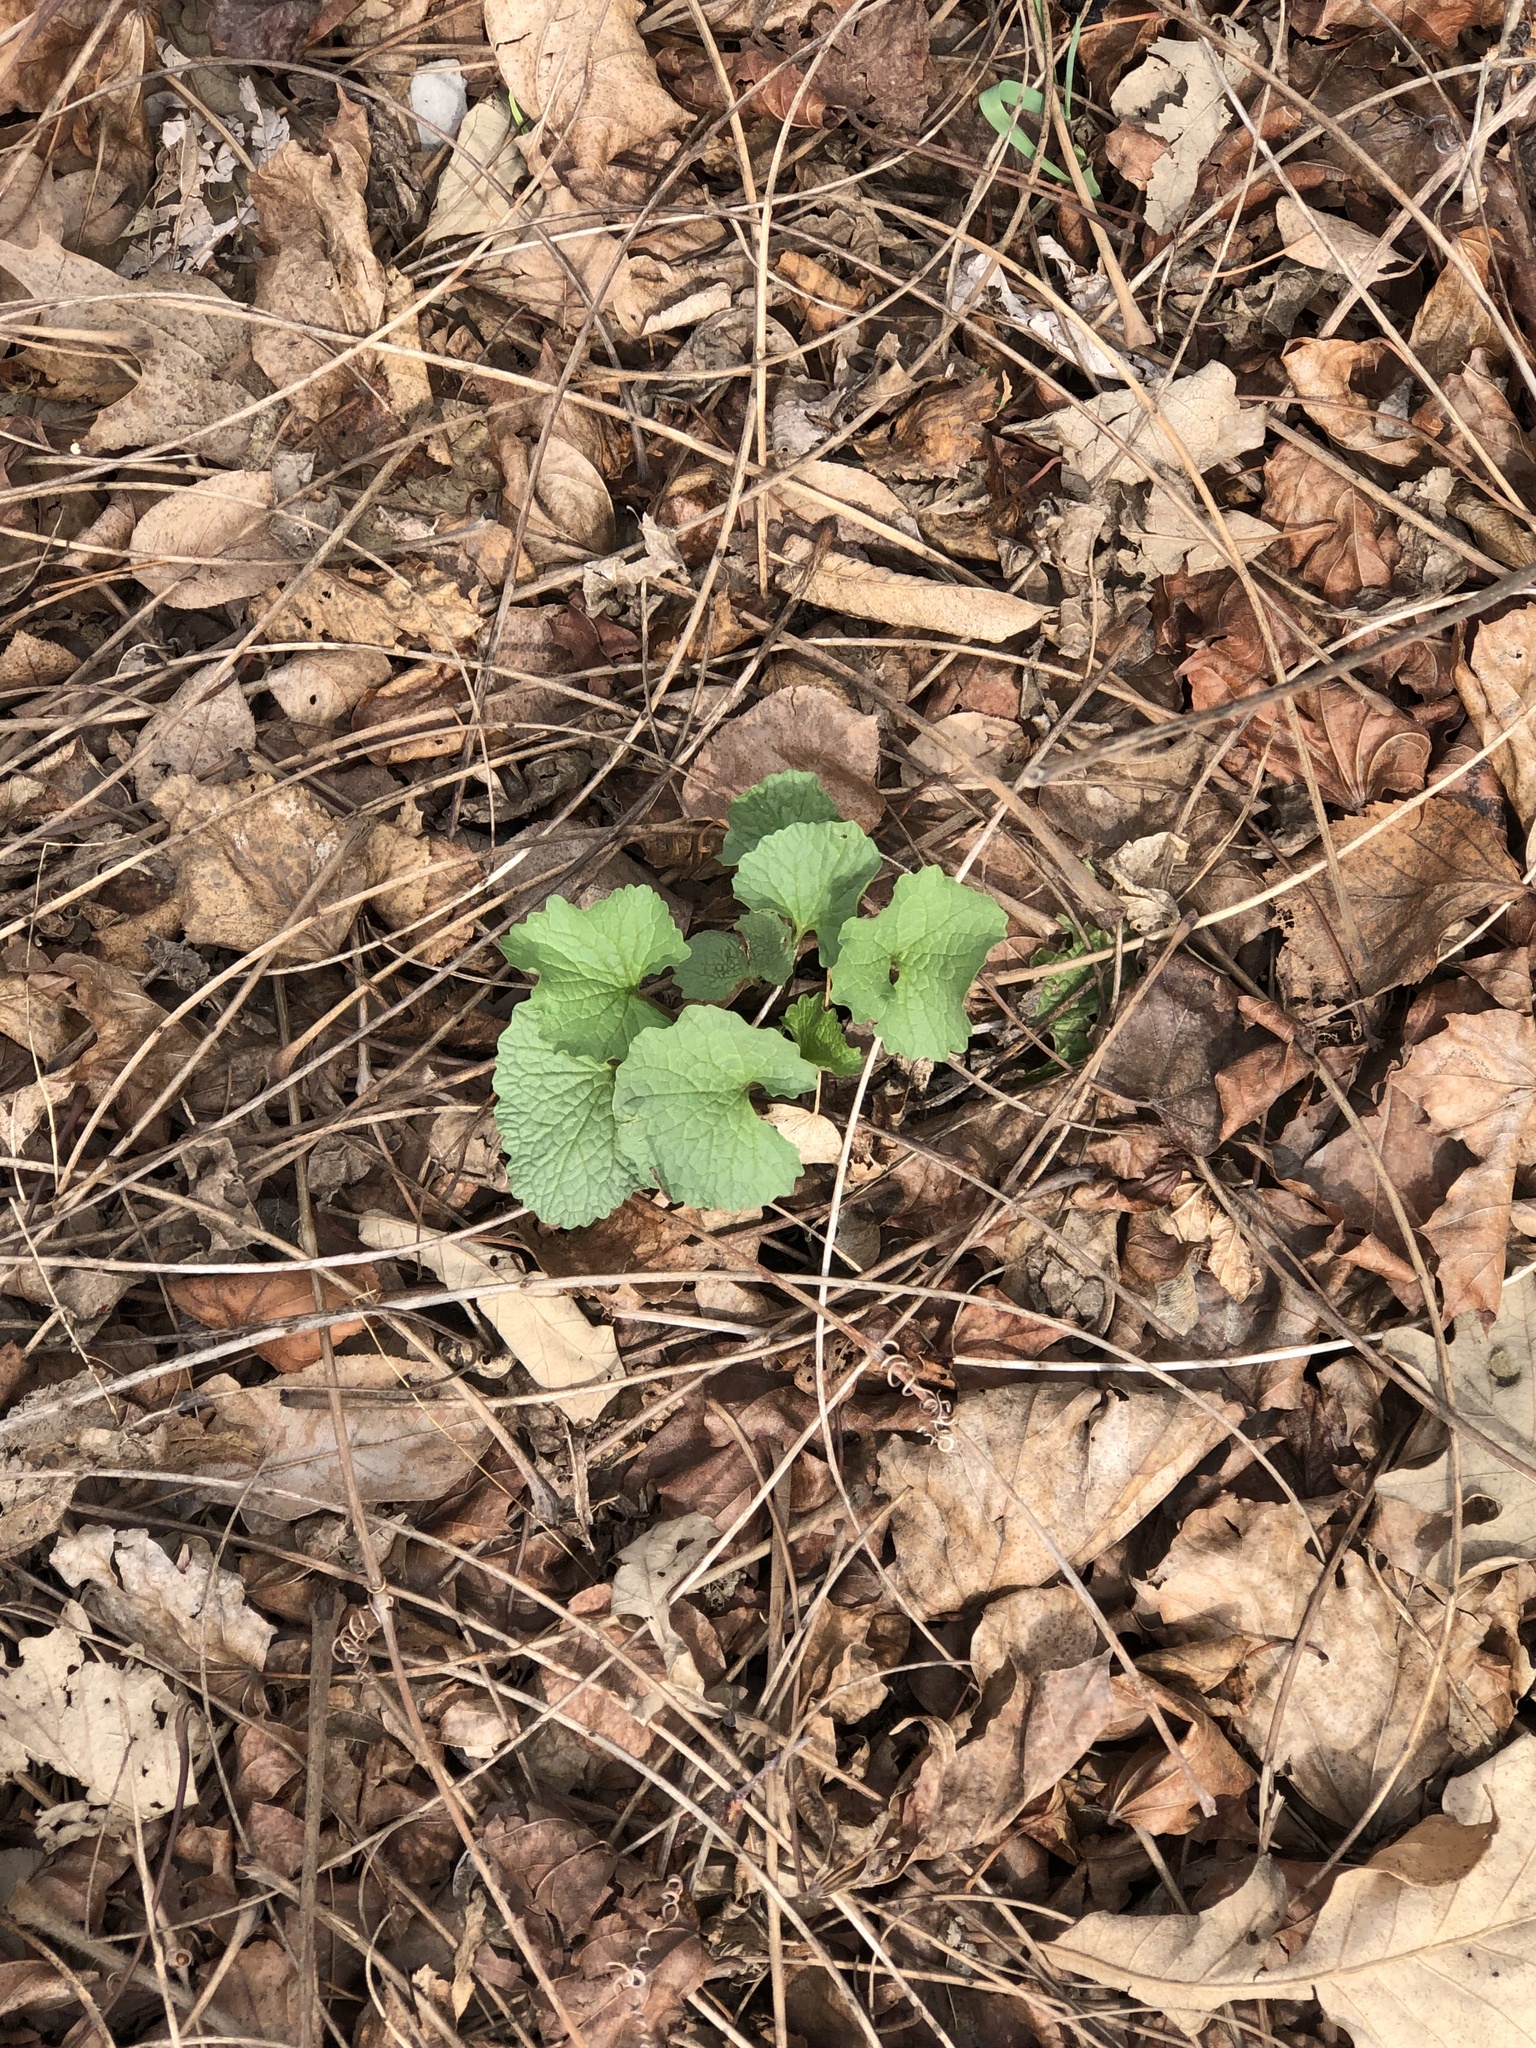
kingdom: Plantae
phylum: Tracheophyta
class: Magnoliopsida
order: Brassicales
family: Brassicaceae
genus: Alliaria
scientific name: Alliaria petiolata
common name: Garlic mustard
